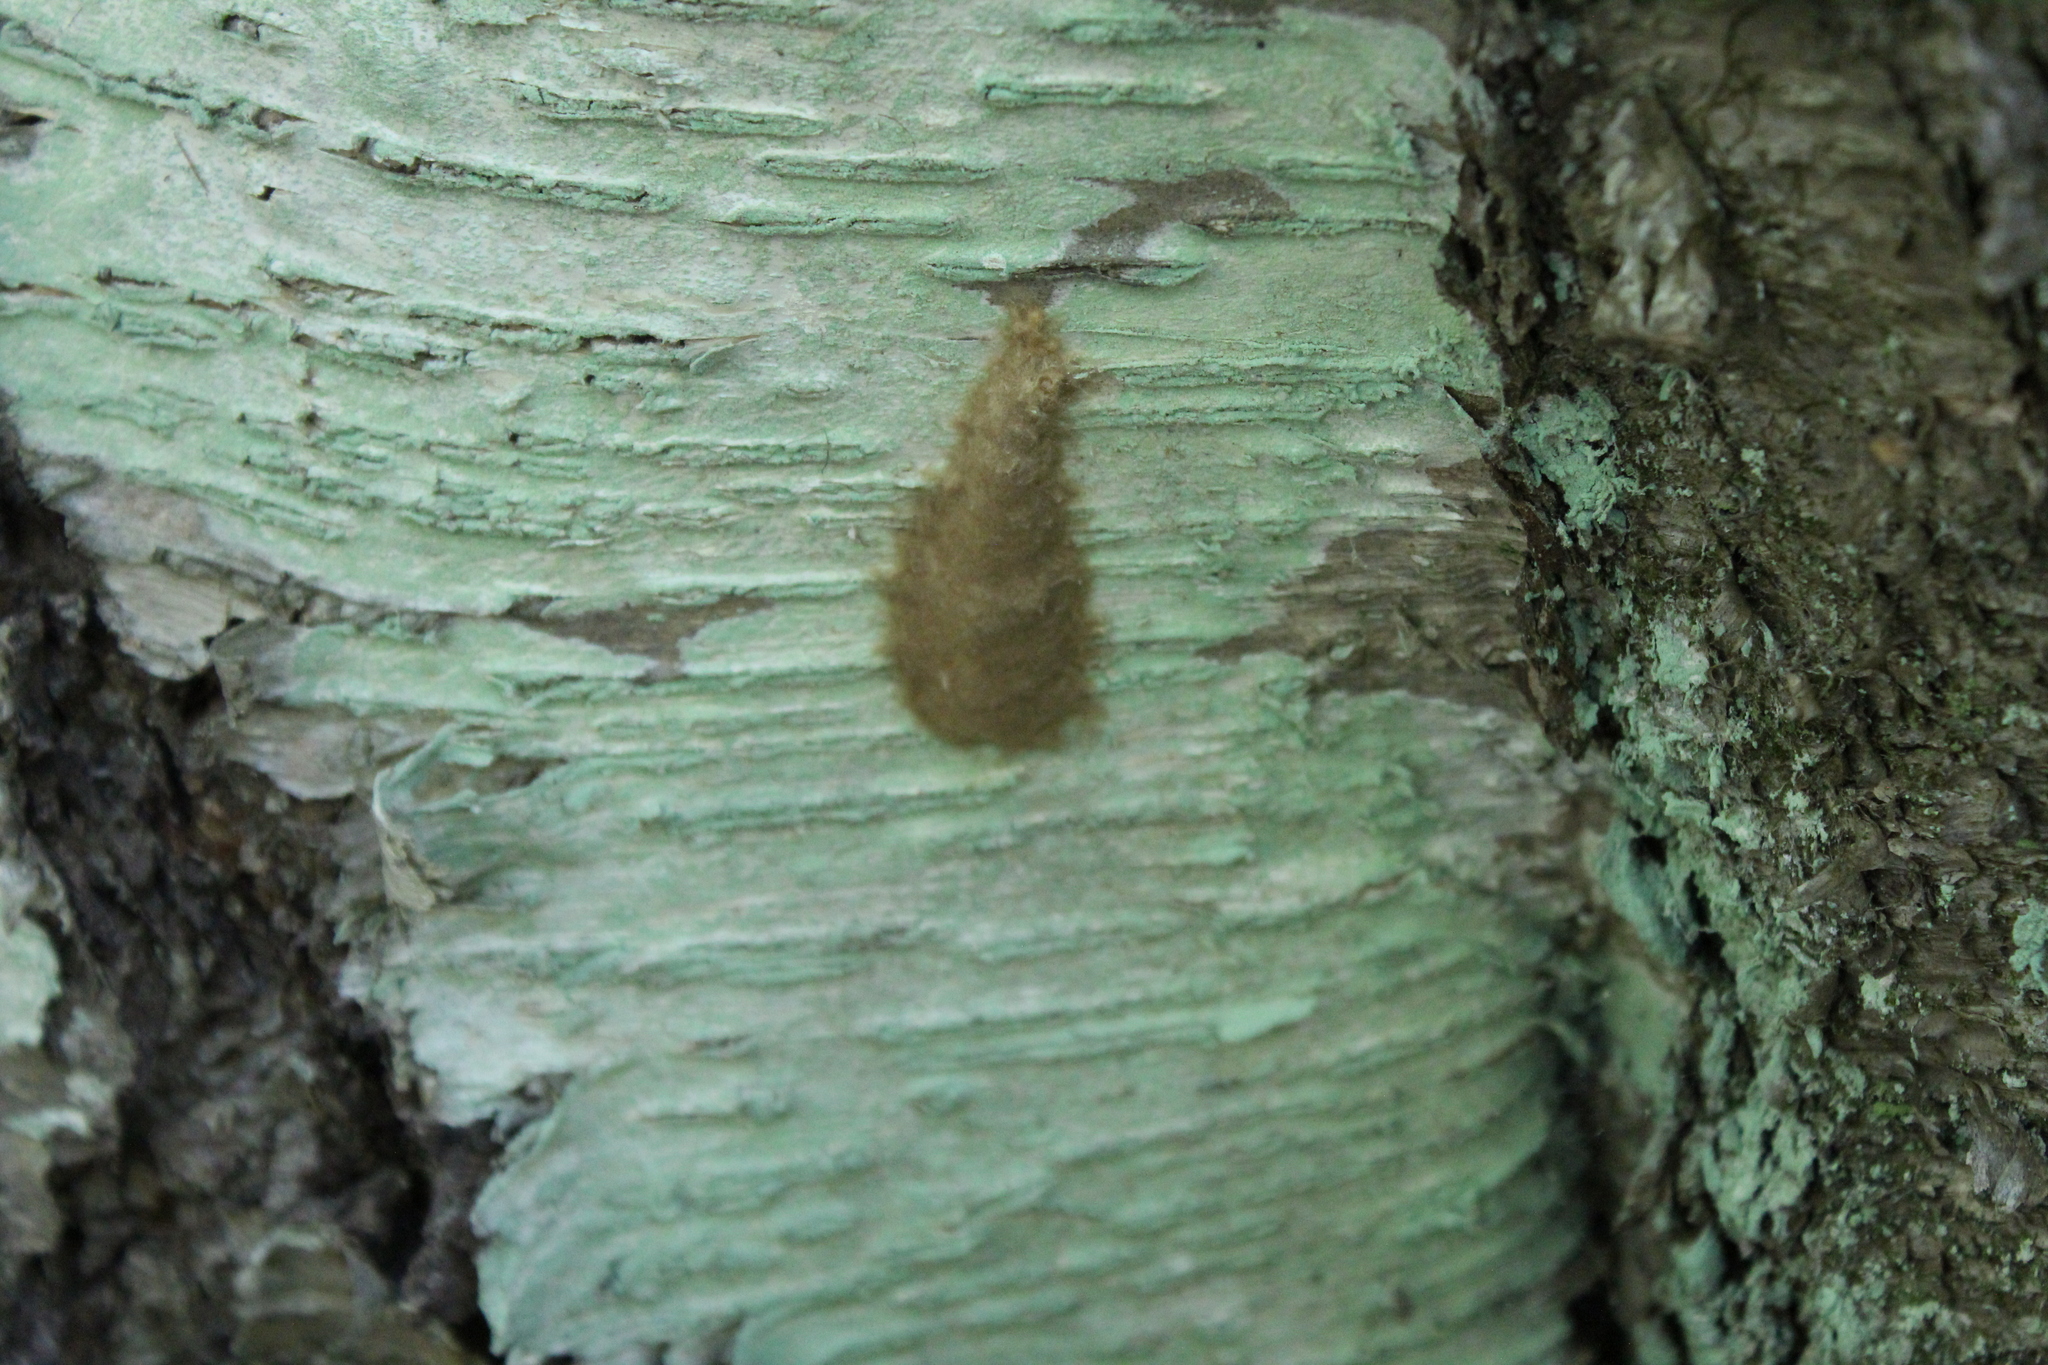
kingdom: Animalia
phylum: Arthropoda
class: Insecta
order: Lepidoptera
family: Erebidae
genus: Lymantria
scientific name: Lymantria dispar
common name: Gypsy moth
